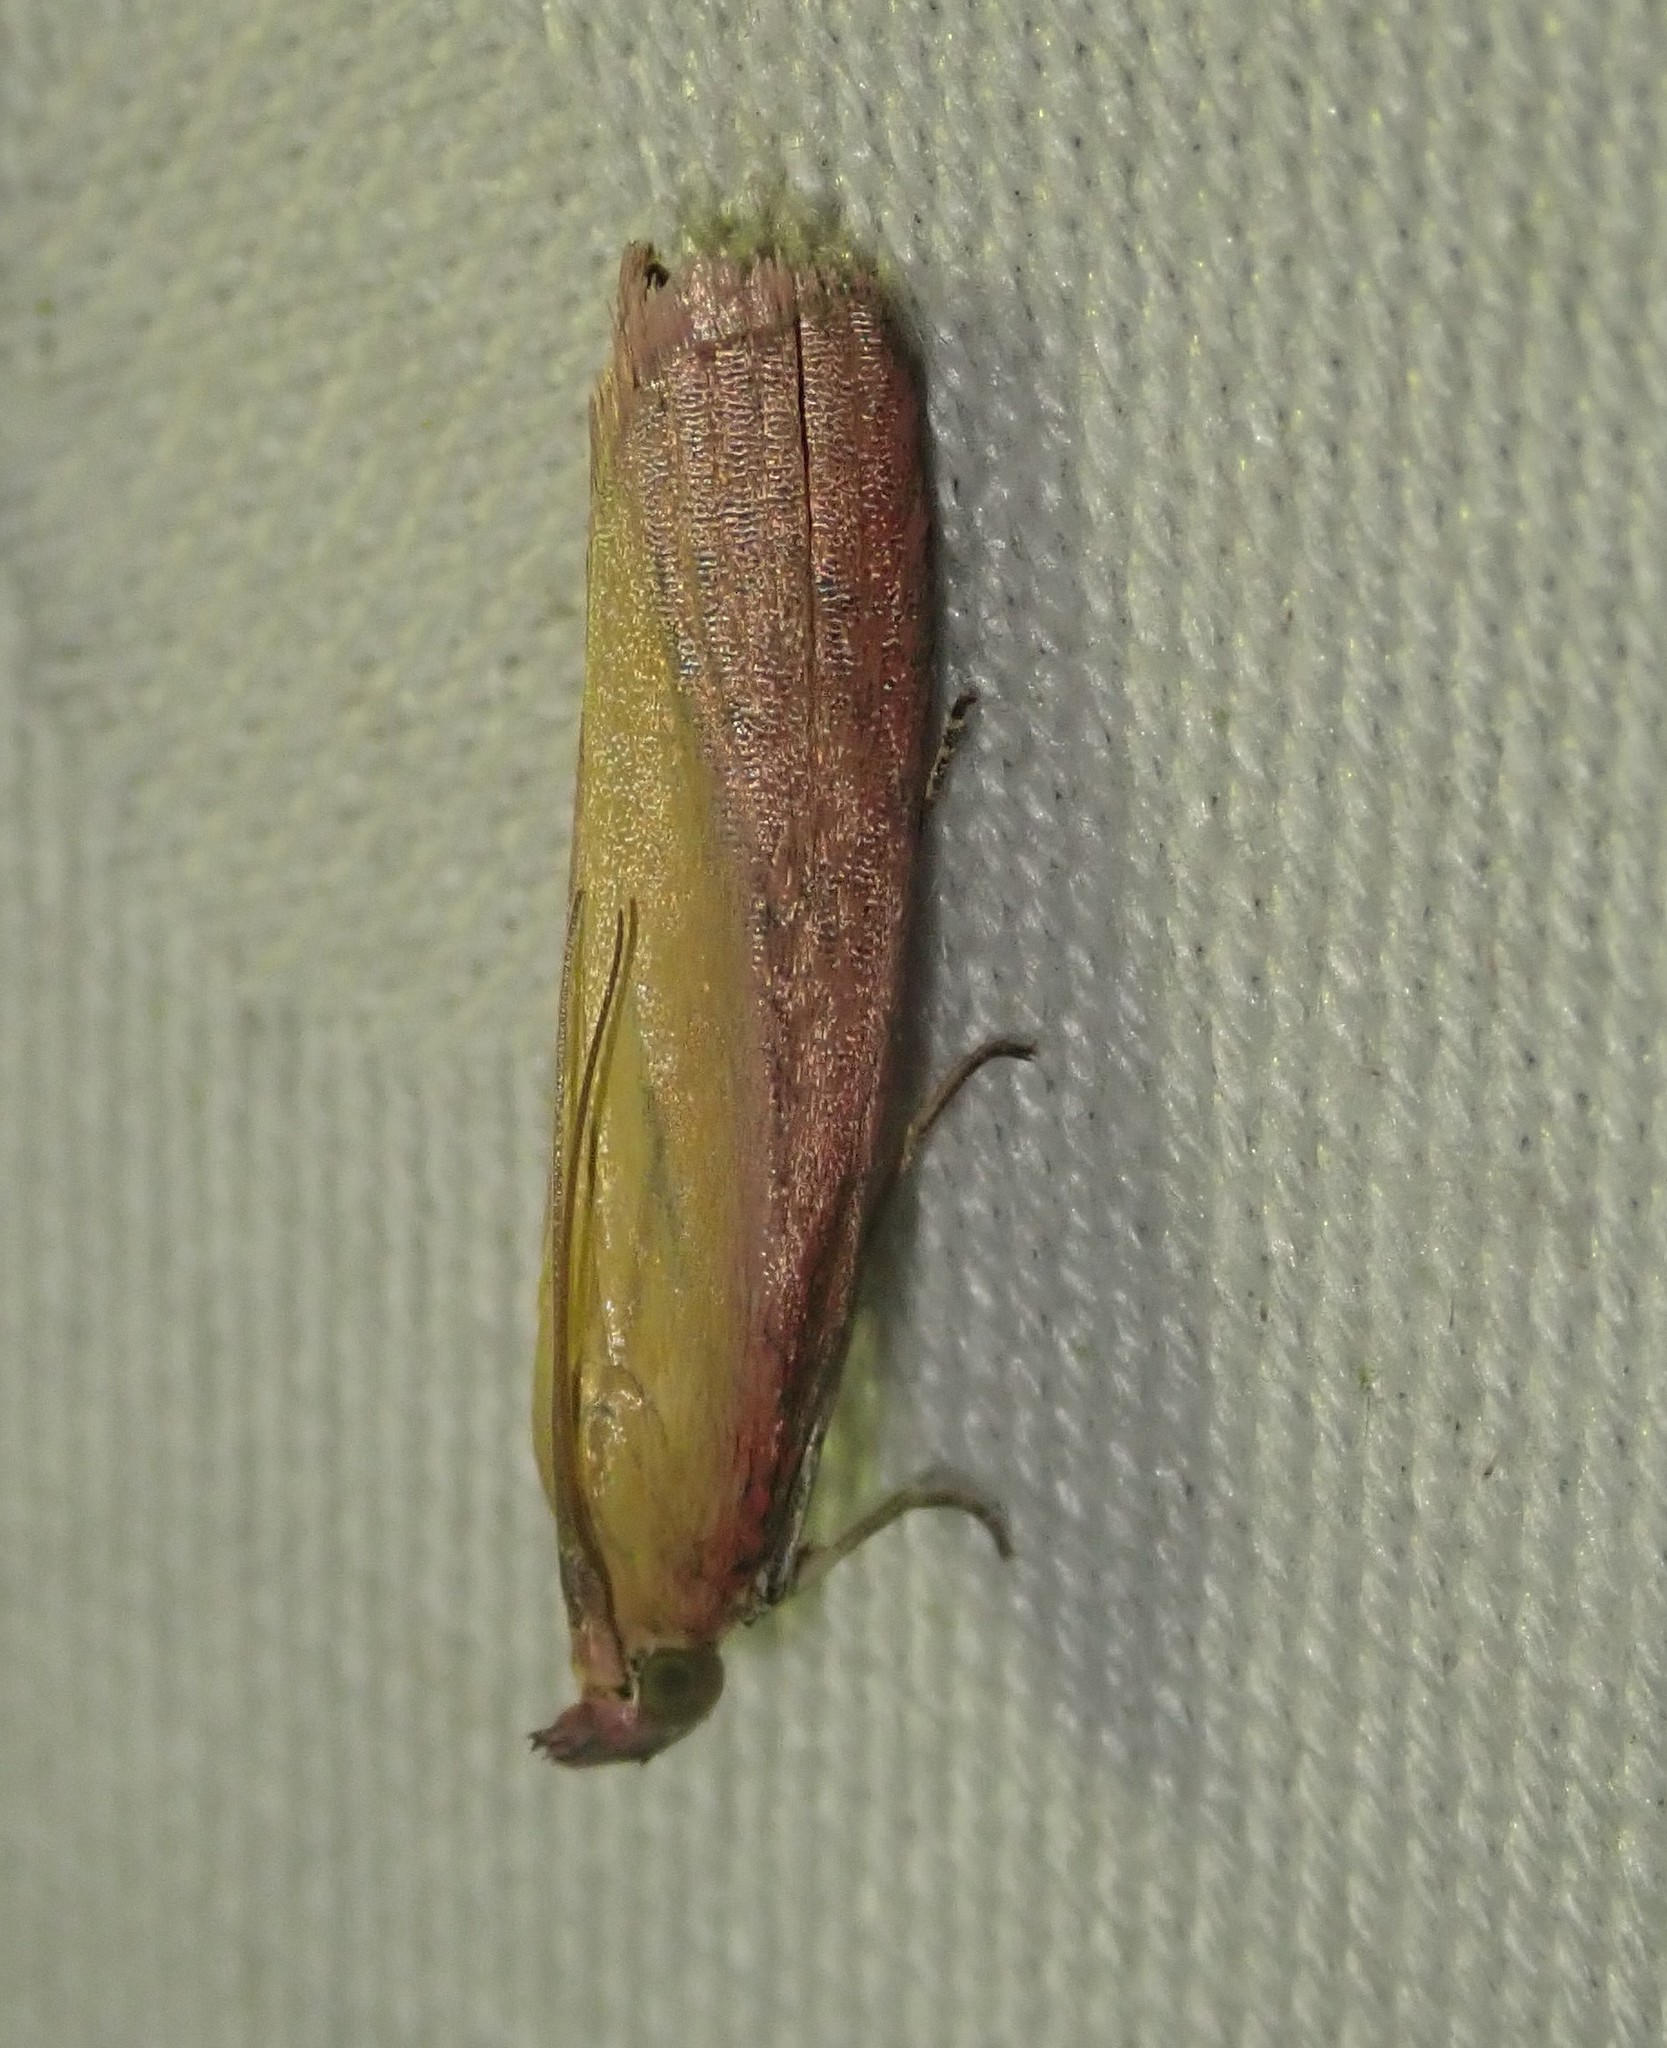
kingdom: Animalia
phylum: Arthropoda
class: Insecta
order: Lepidoptera
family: Pyralidae
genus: Oncocera
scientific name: Oncocera semirubella
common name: Rosy-striped knot-horn
